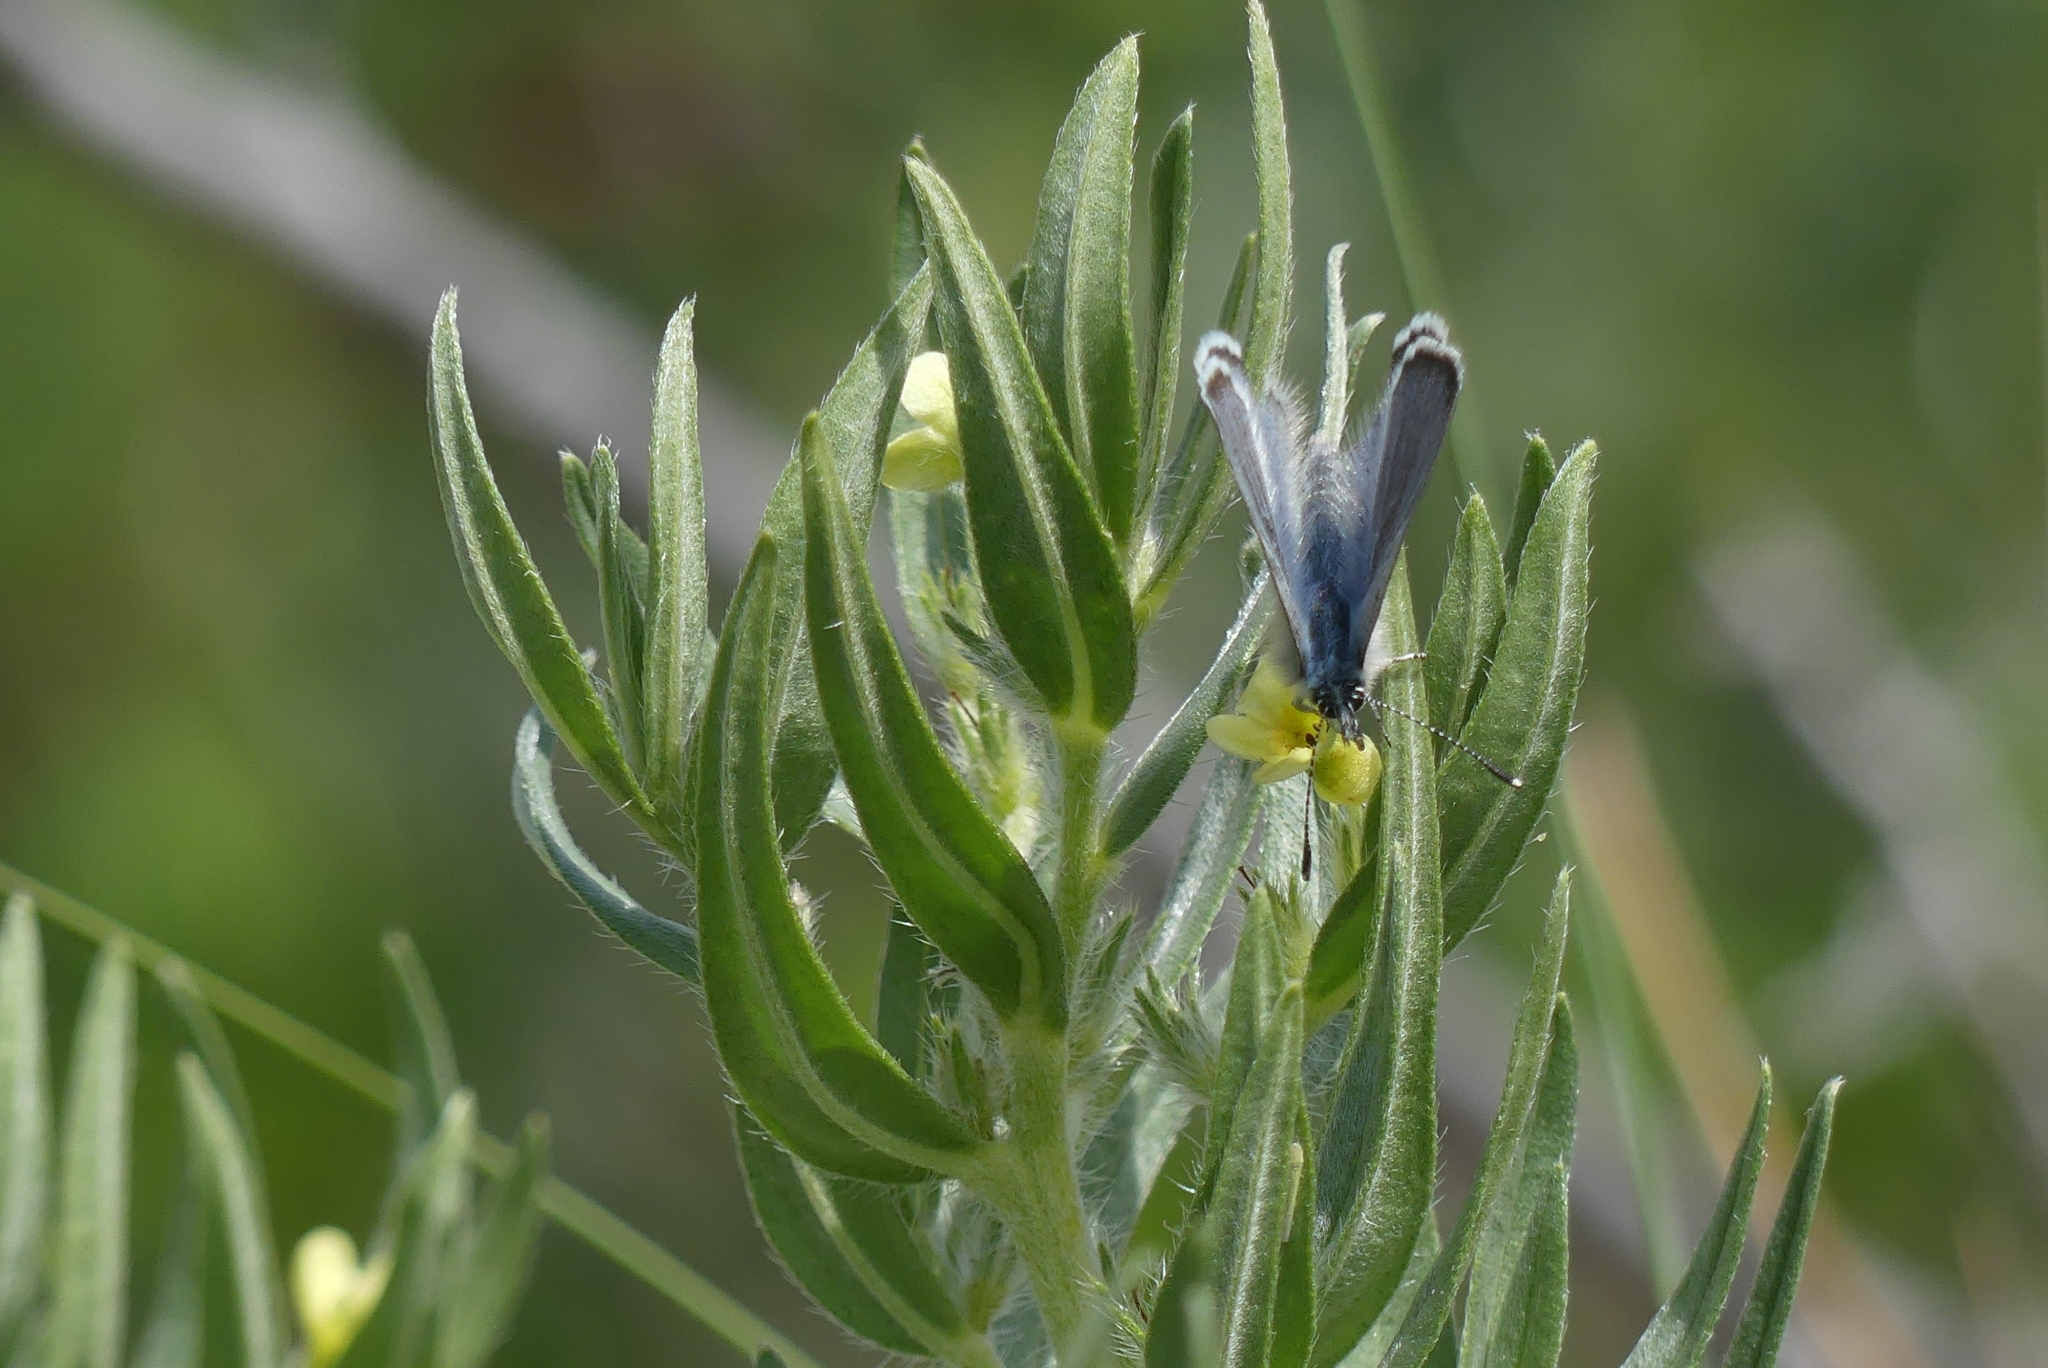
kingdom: Animalia
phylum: Arthropoda
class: Insecta
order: Lepidoptera
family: Lycaenidae
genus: Glaucopsyche
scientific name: Glaucopsyche lygdamus
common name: Silvery blue
